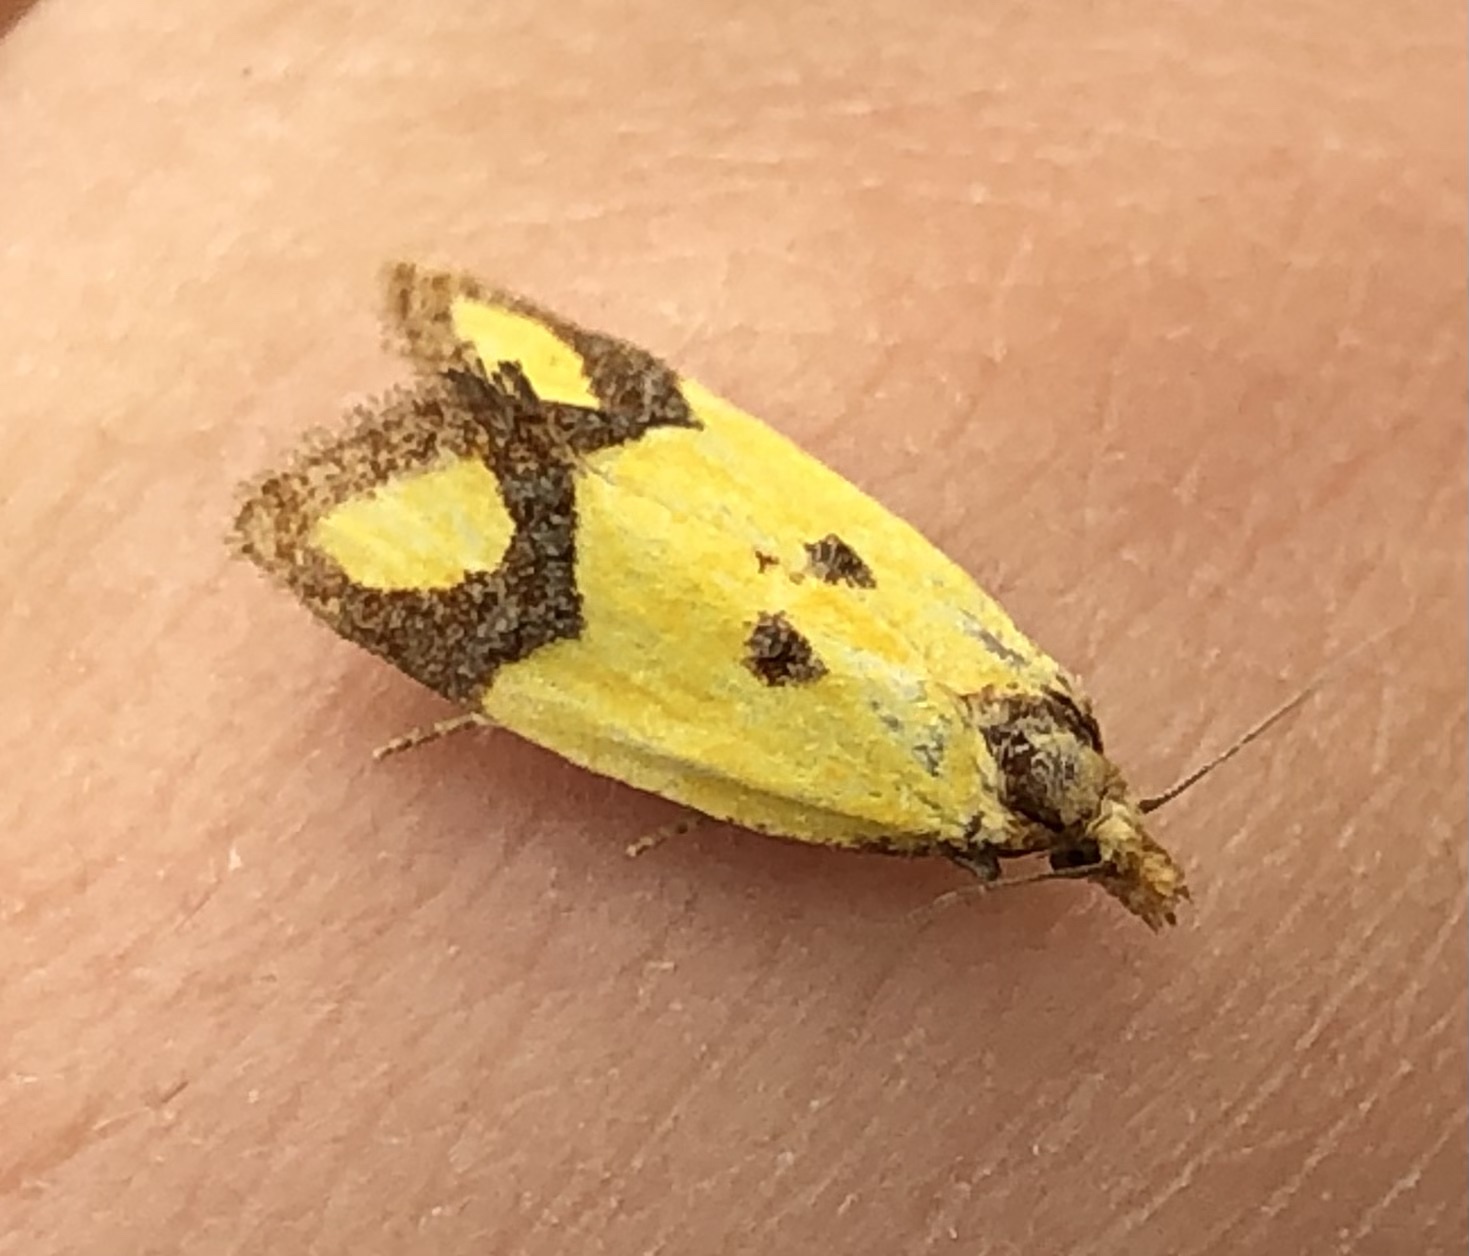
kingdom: Animalia
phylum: Arthropoda
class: Insecta
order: Lepidoptera
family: Tortricidae
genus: Agapeta
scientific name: Agapeta zoegana
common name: Sulfur knapweed root moth
